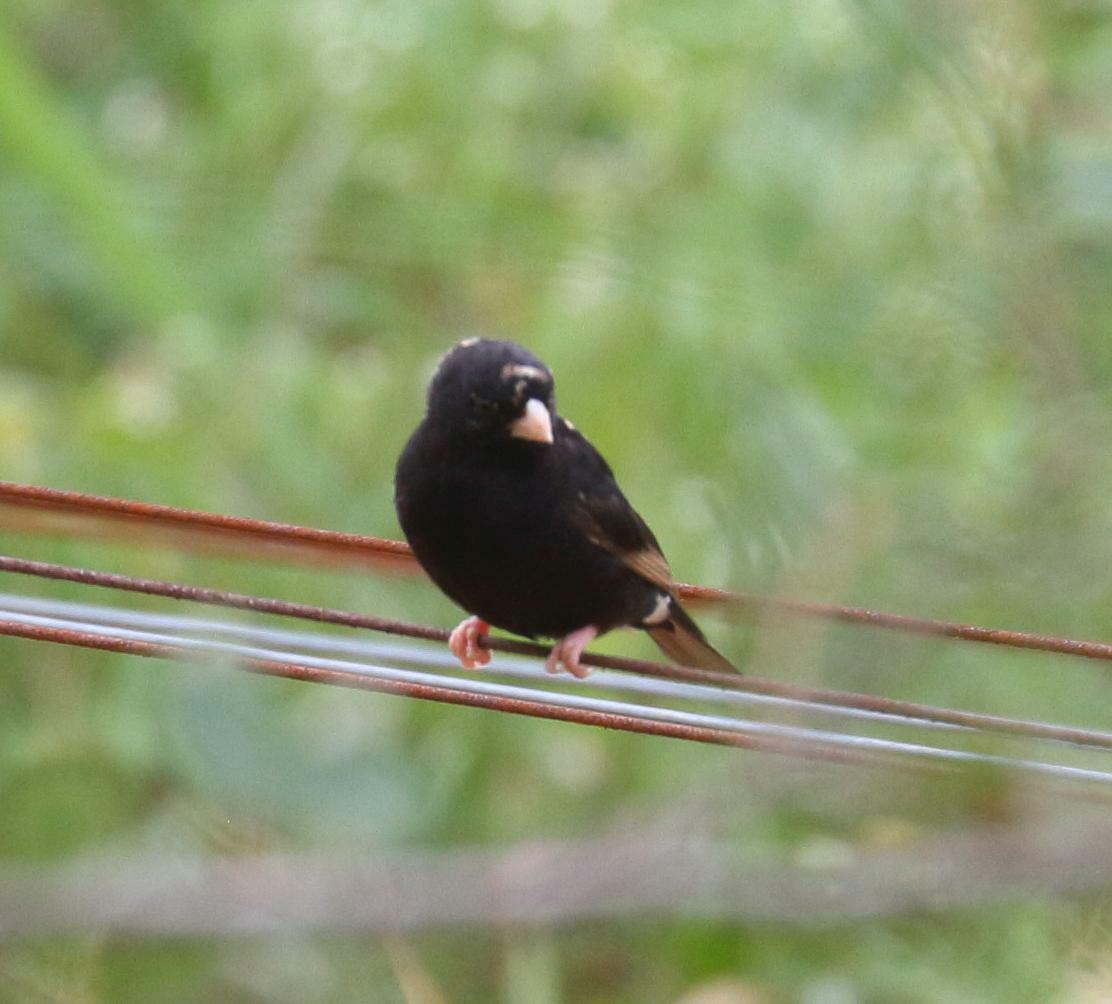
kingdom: Animalia
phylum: Chordata
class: Aves
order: Passeriformes
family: Viduidae
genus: Vidua
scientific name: Vidua purpurascens
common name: Purple indigobird
